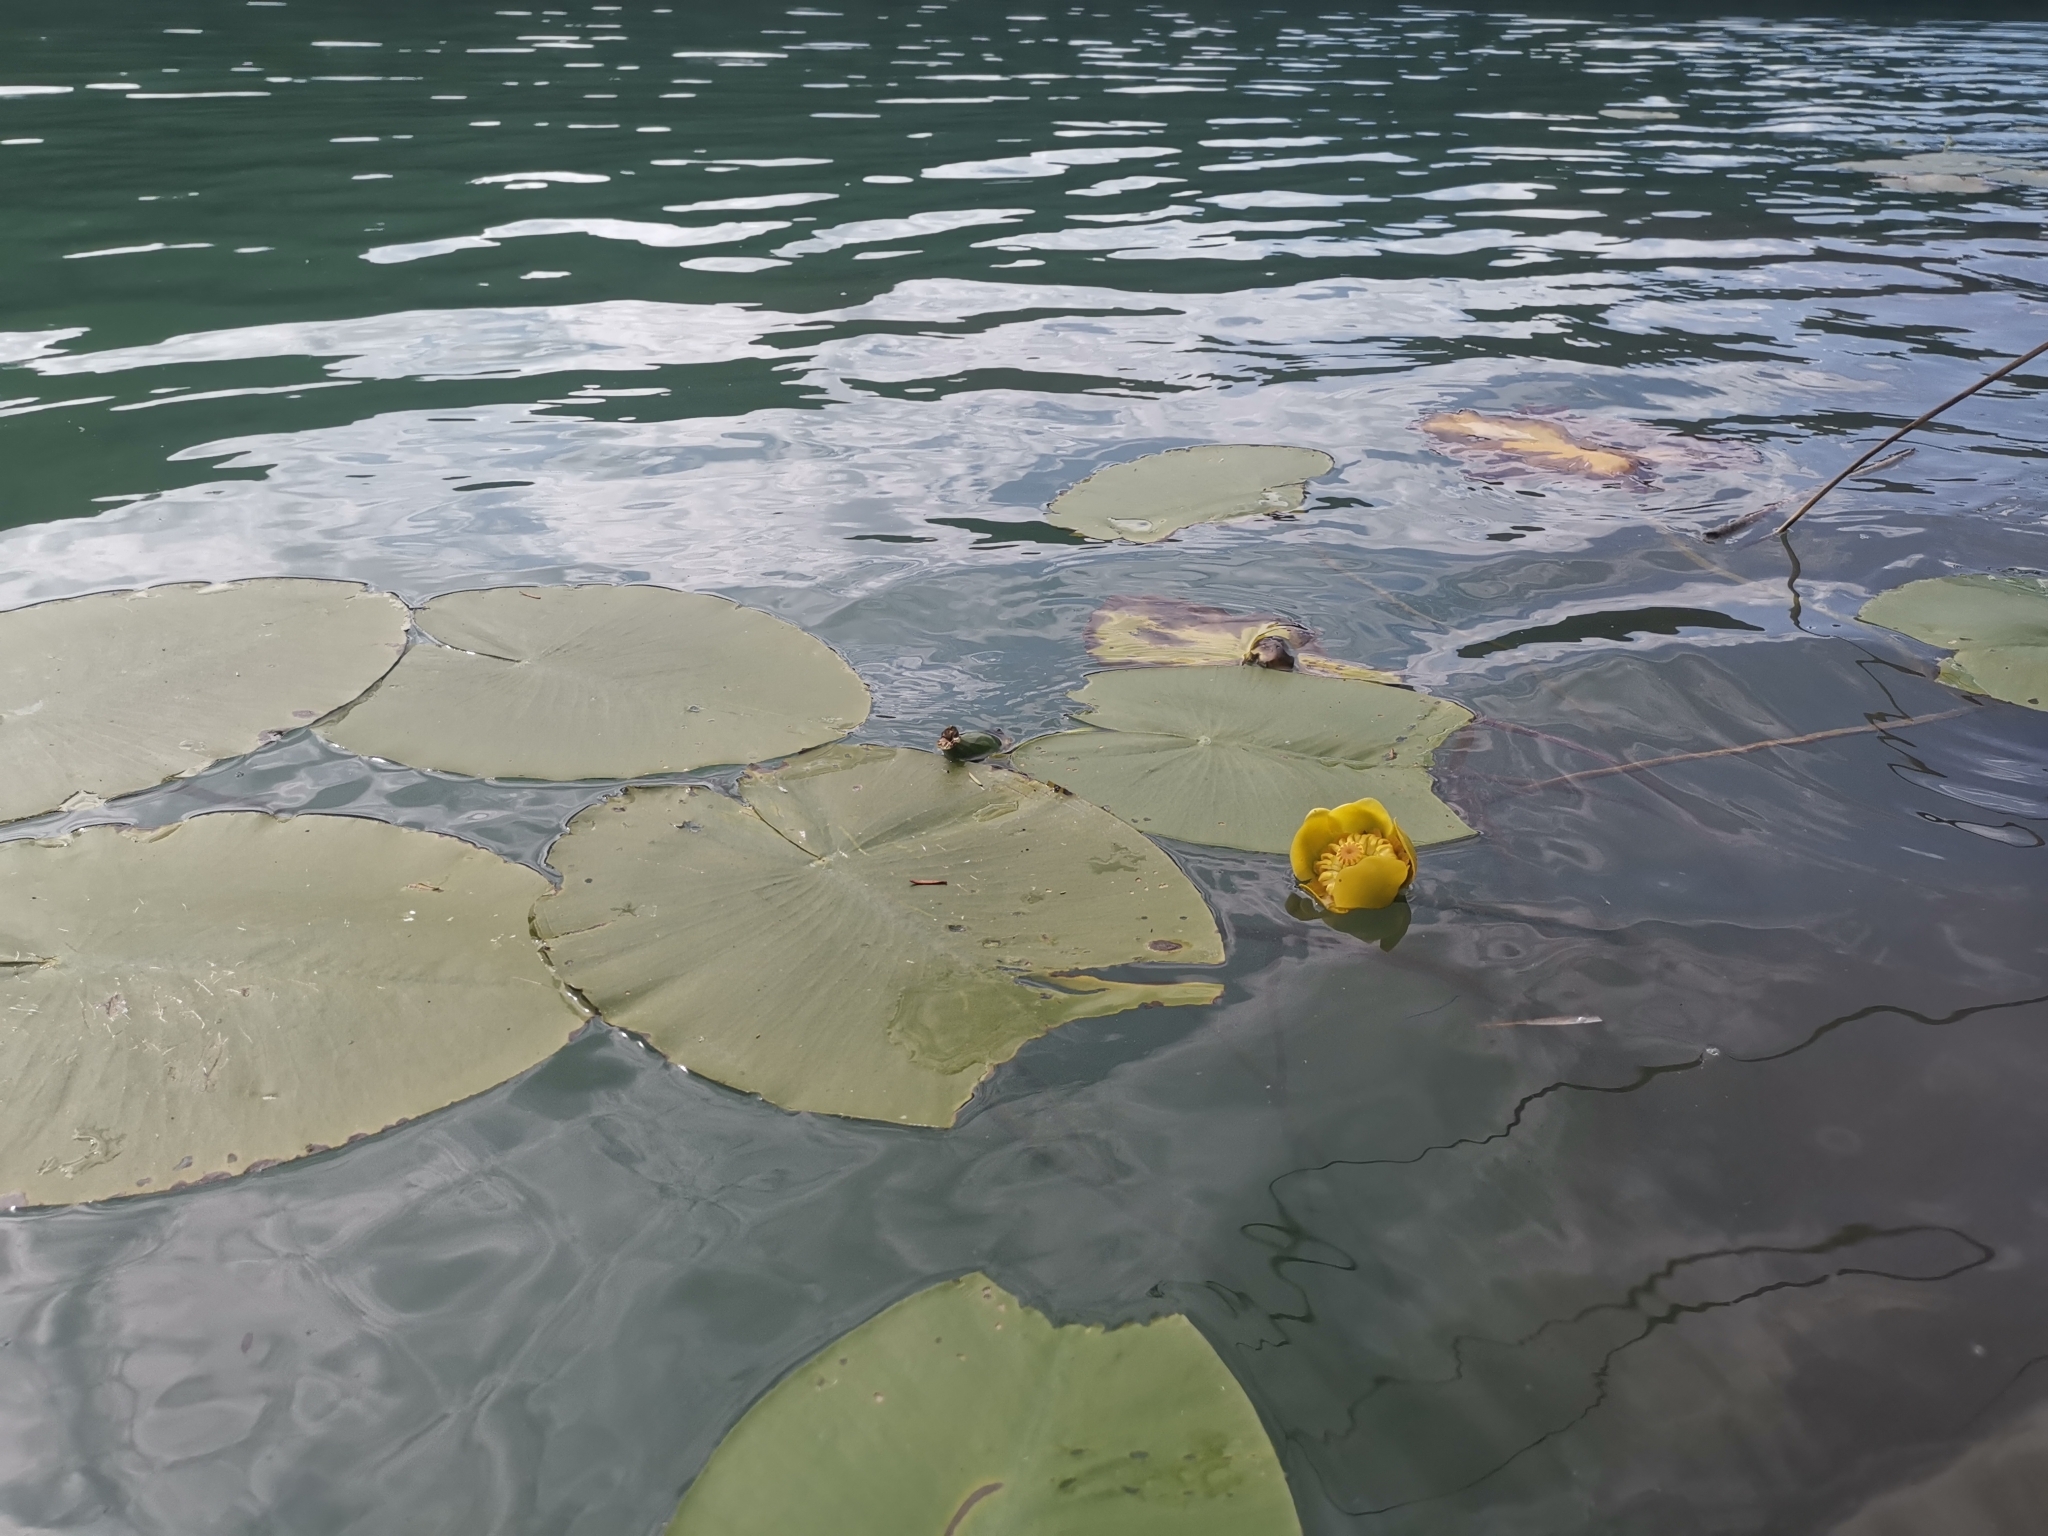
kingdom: Plantae
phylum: Tracheophyta
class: Magnoliopsida
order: Nymphaeales
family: Nymphaeaceae
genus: Nuphar
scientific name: Nuphar lutea
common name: Yellow water-lily
